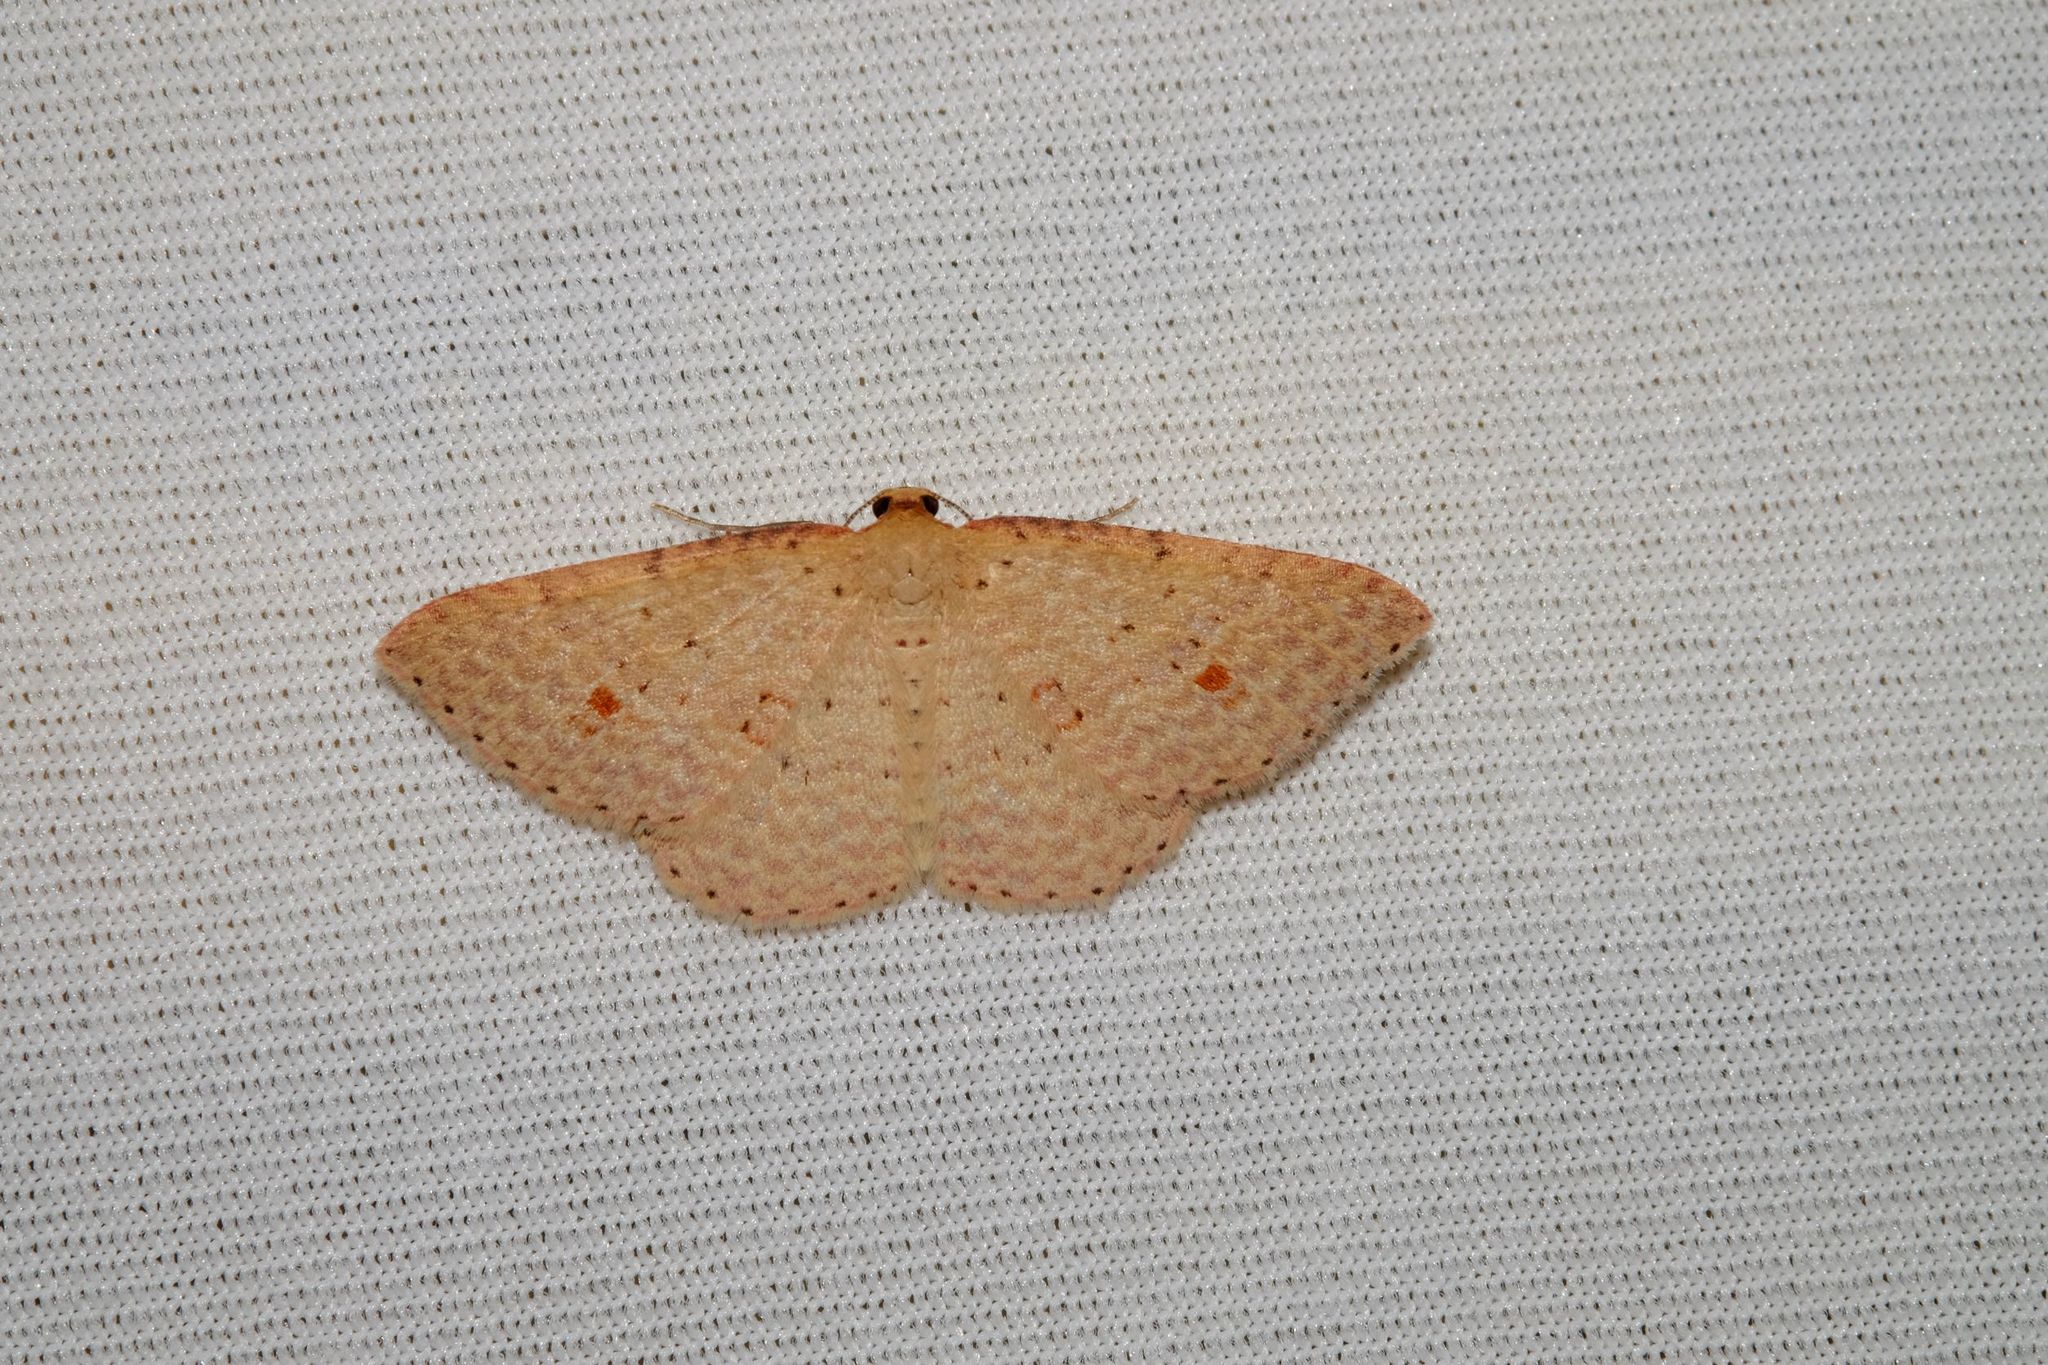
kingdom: Animalia
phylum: Arthropoda
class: Insecta
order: Lepidoptera
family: Geometridae
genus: Epicyme
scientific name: Epicyme rubropunctaria
